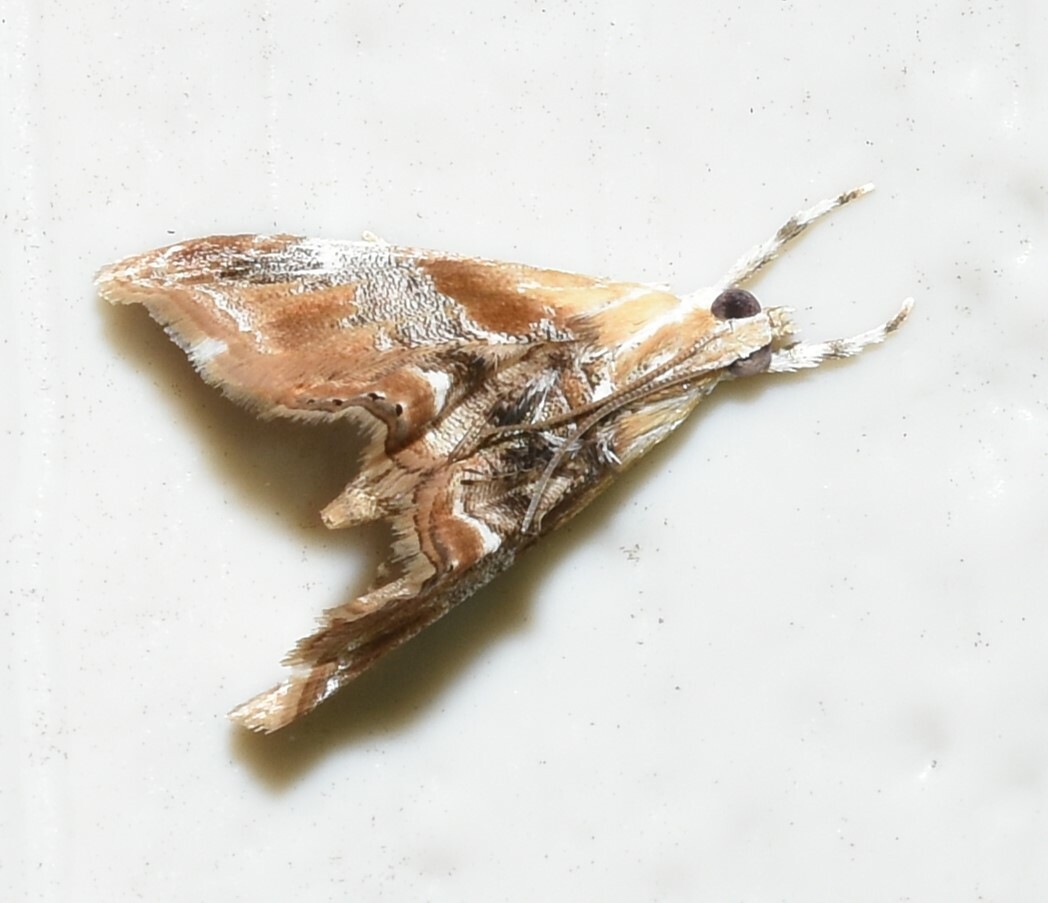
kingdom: Animalia
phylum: Arthropoda
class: Insecta
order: Lepidoptera
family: Crambidae
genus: Dicymolomia
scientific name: Dicymolomia julianalis
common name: Julia's dicymolomia moth
